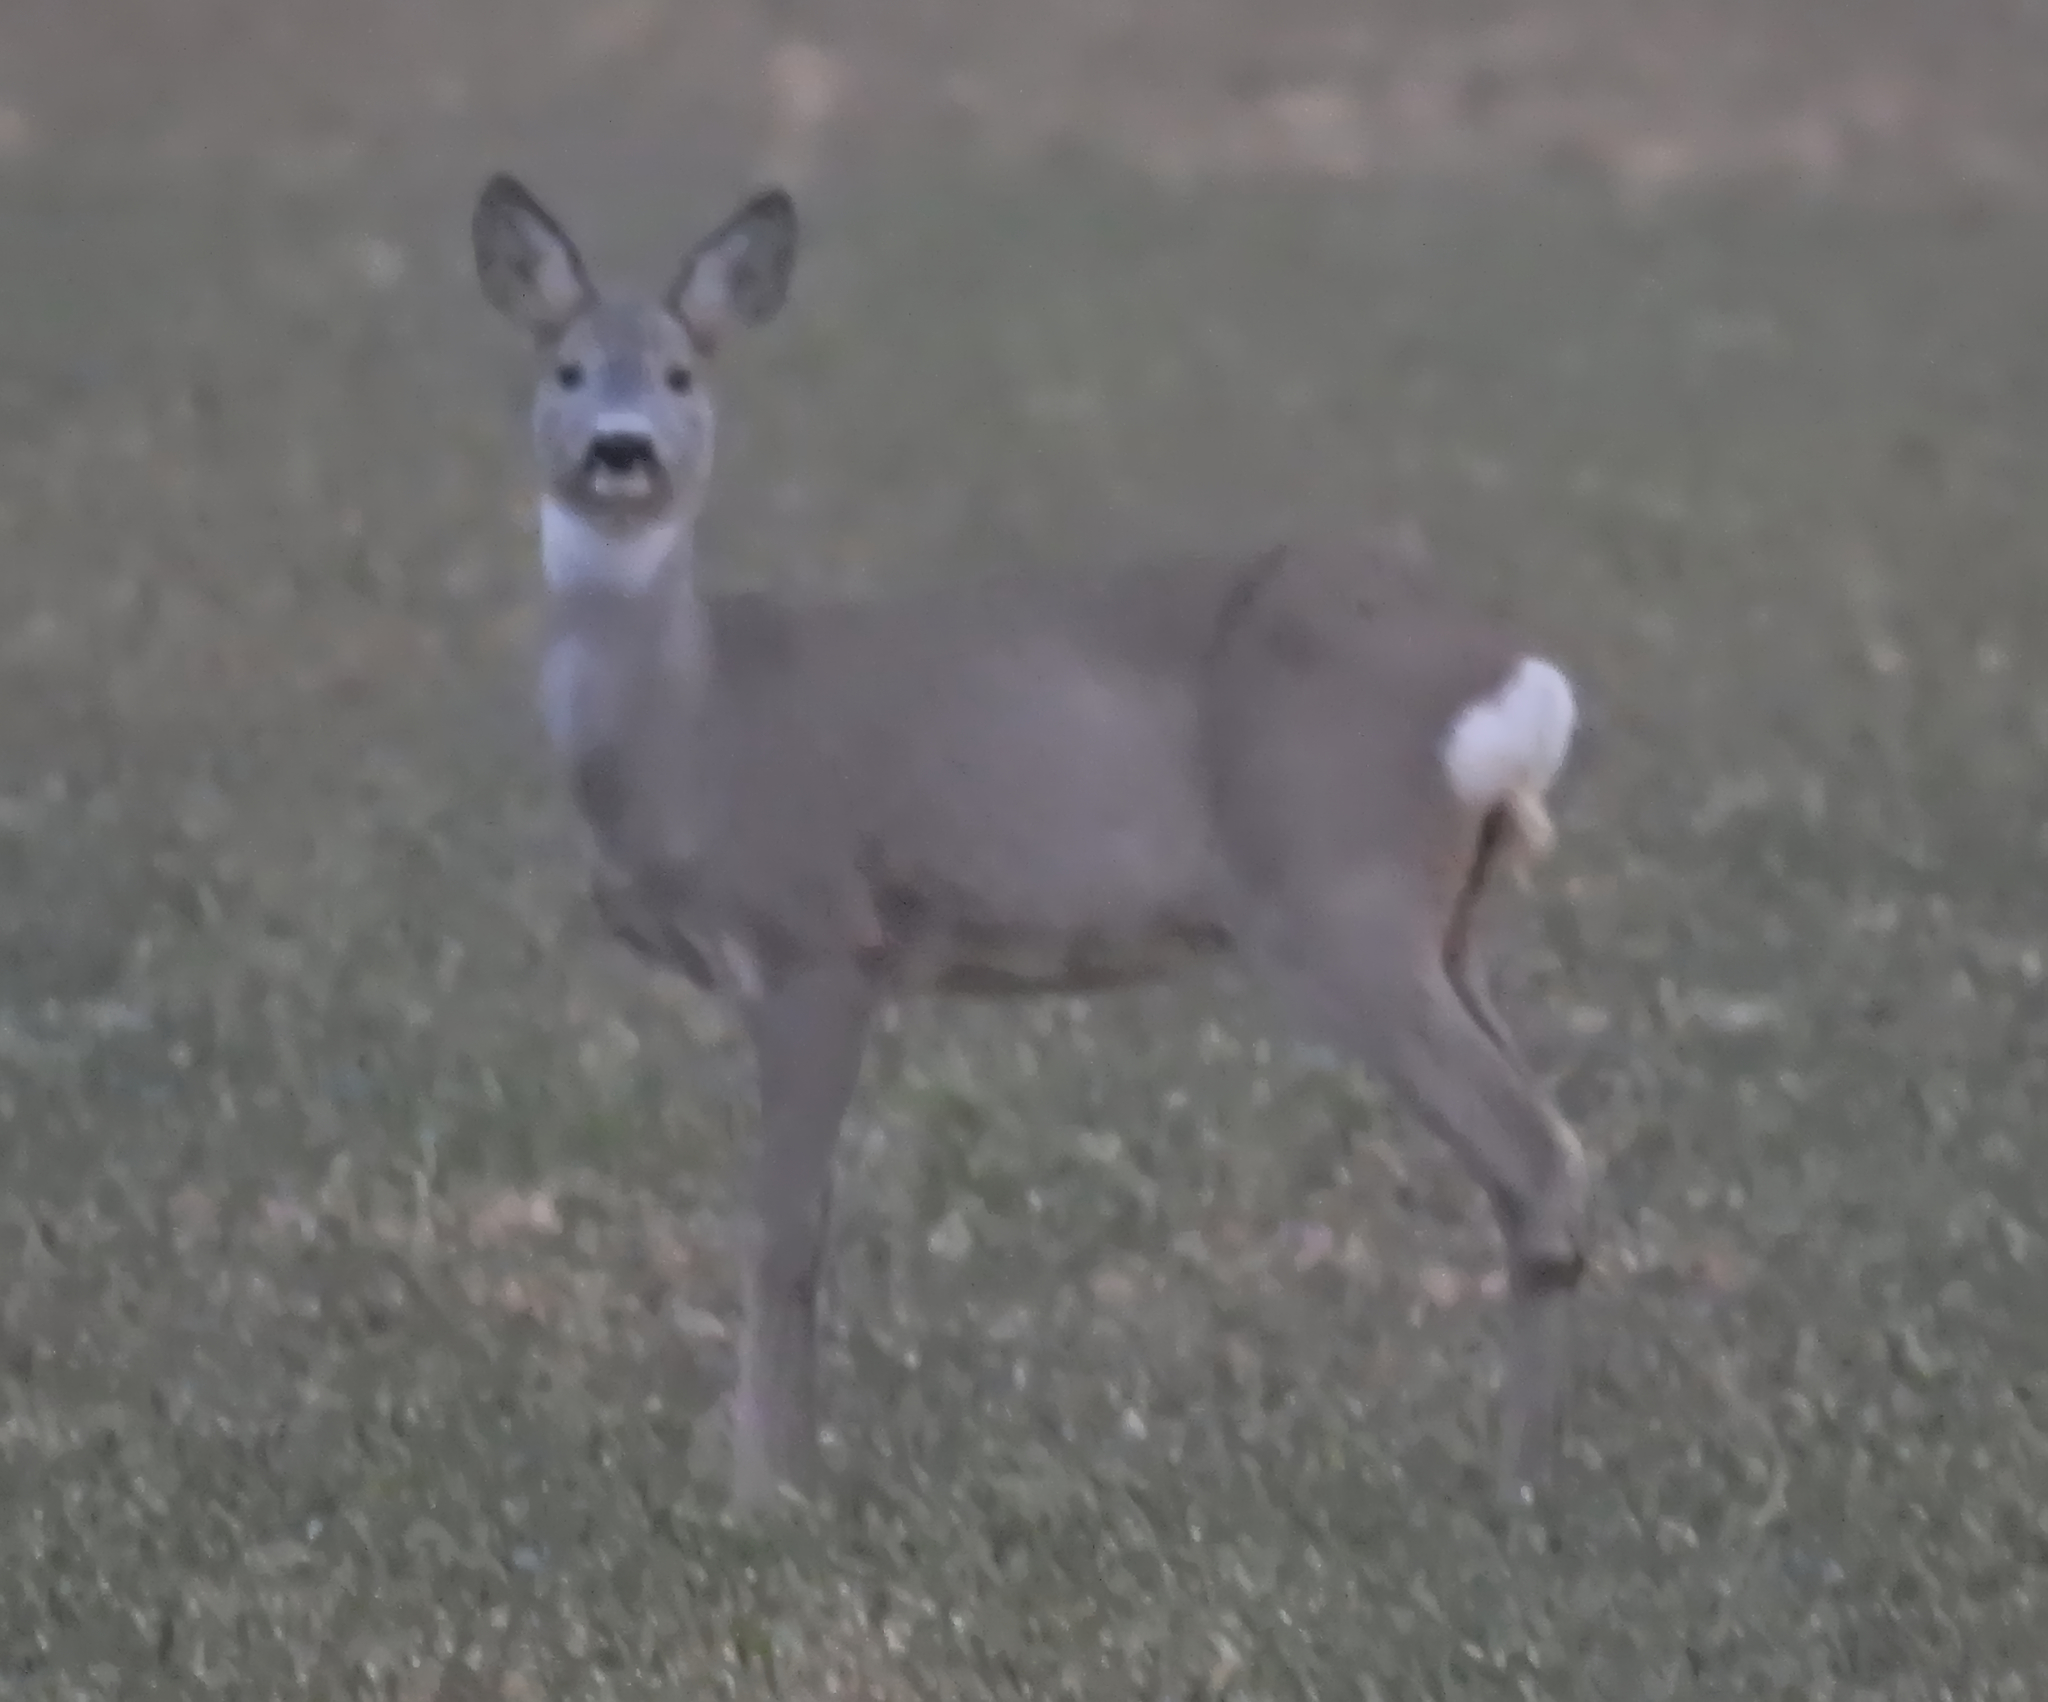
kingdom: Animalia
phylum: Chordata
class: Mammalia
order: Artiodactyla
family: Cervidae
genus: Capreolus
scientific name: Capreolus capreolus
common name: Western roe deer
